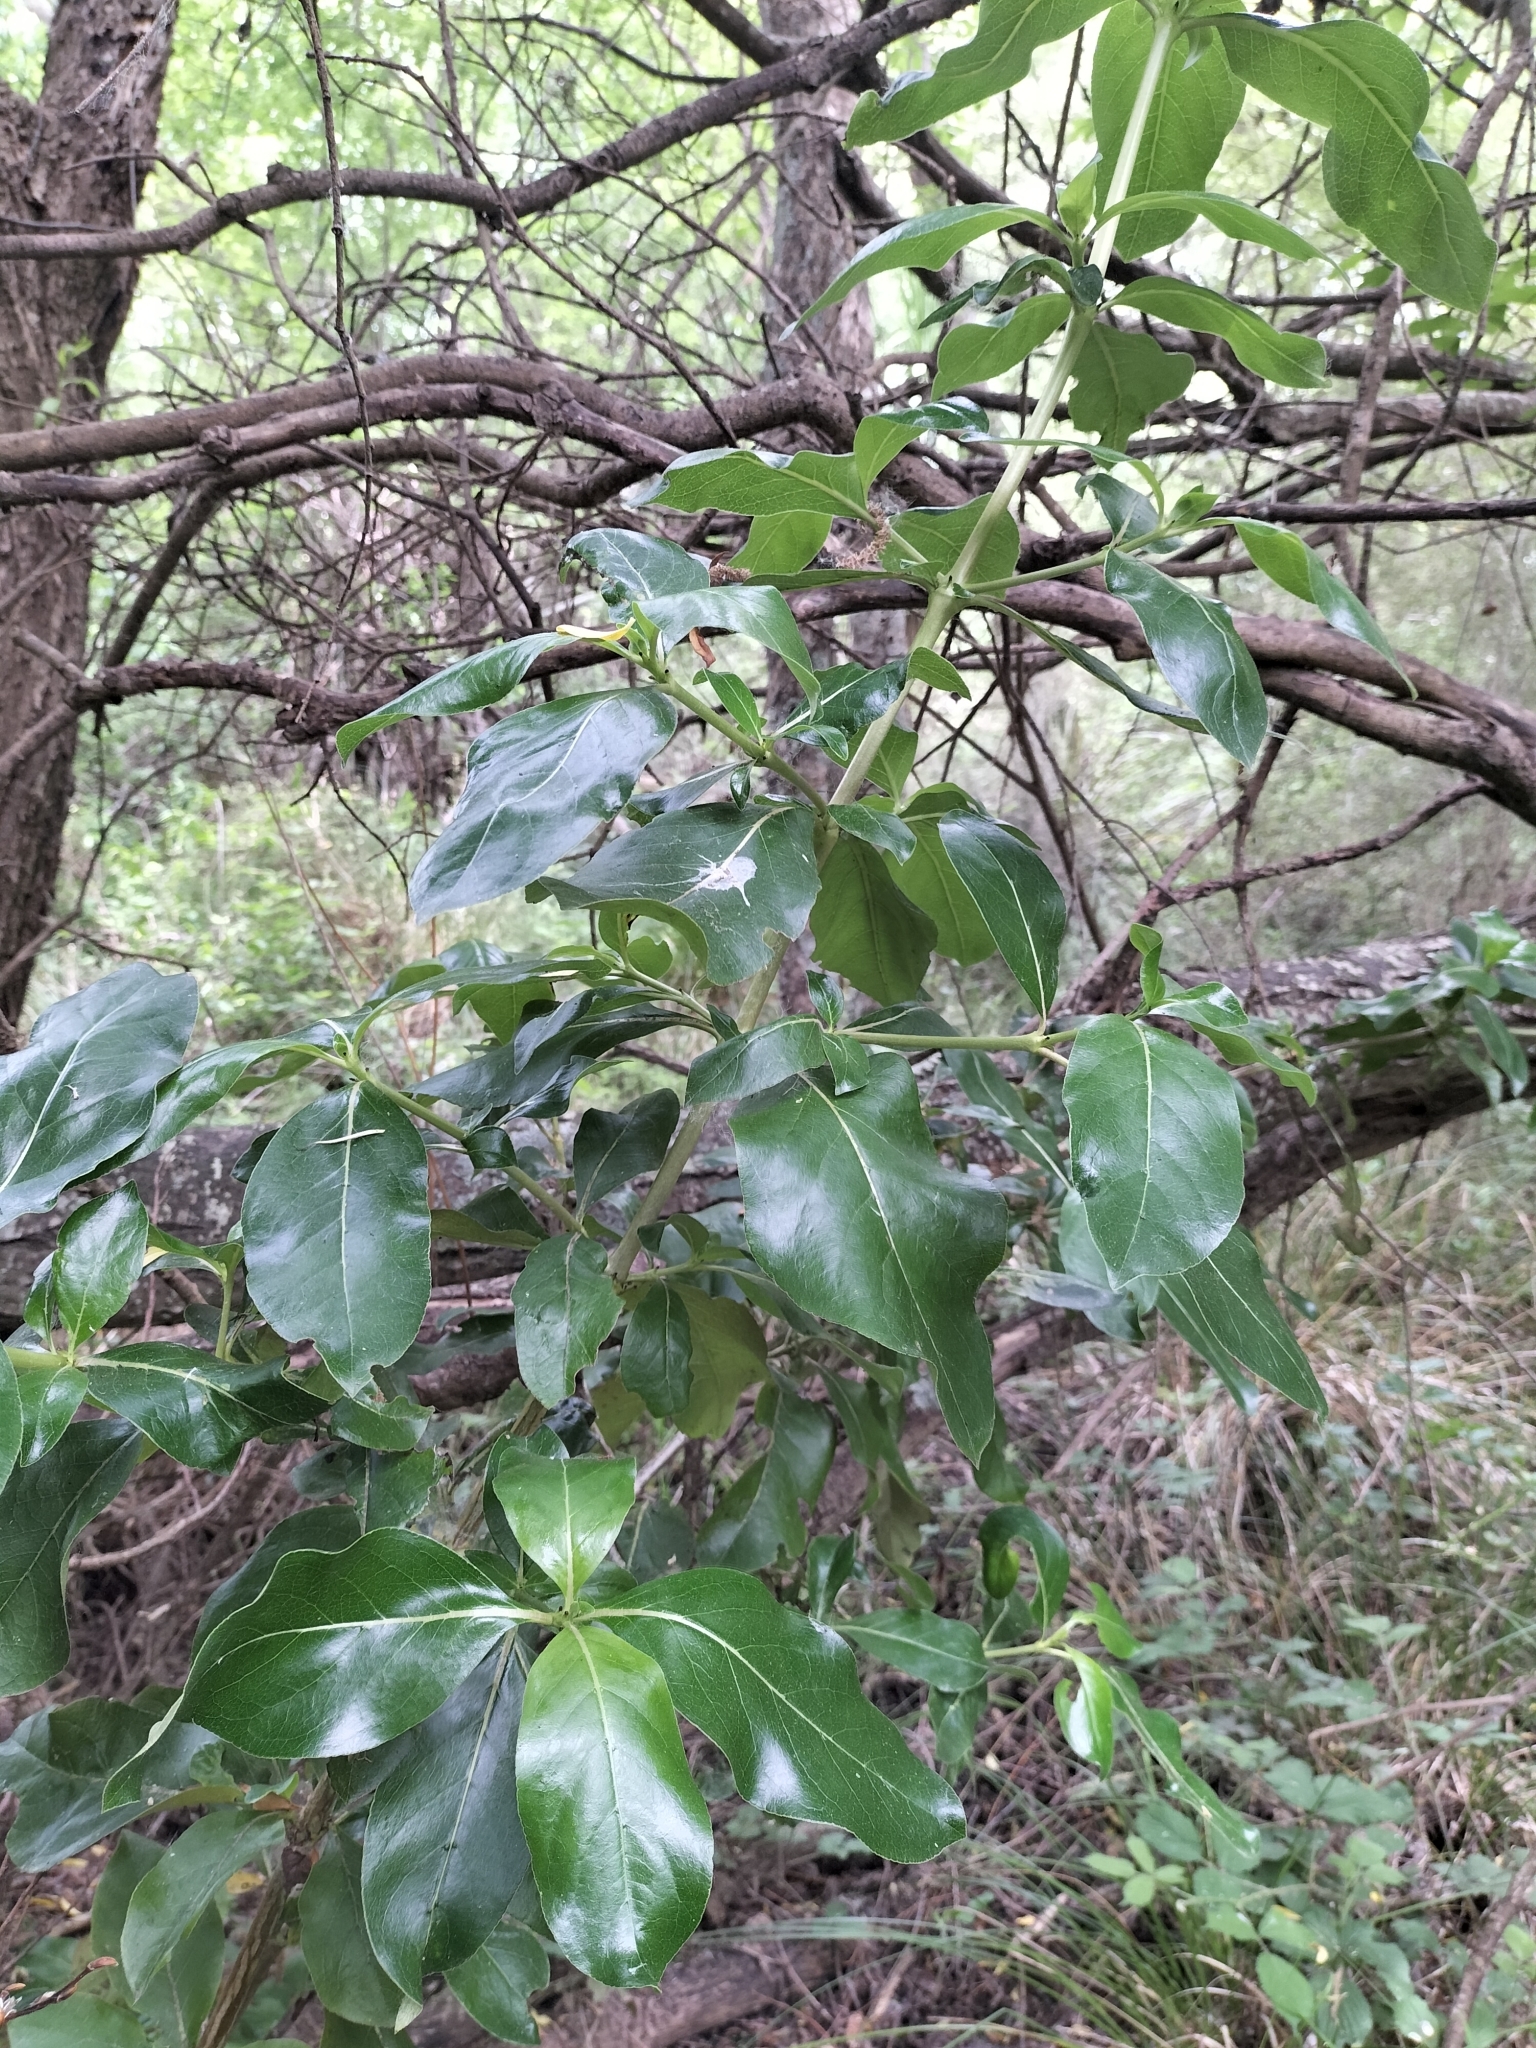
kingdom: Plantae
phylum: Tracheophyta
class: Magnoliopsida
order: Gentianales
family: Rubiaceae
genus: Coprosma
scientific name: Coprosma robusta
